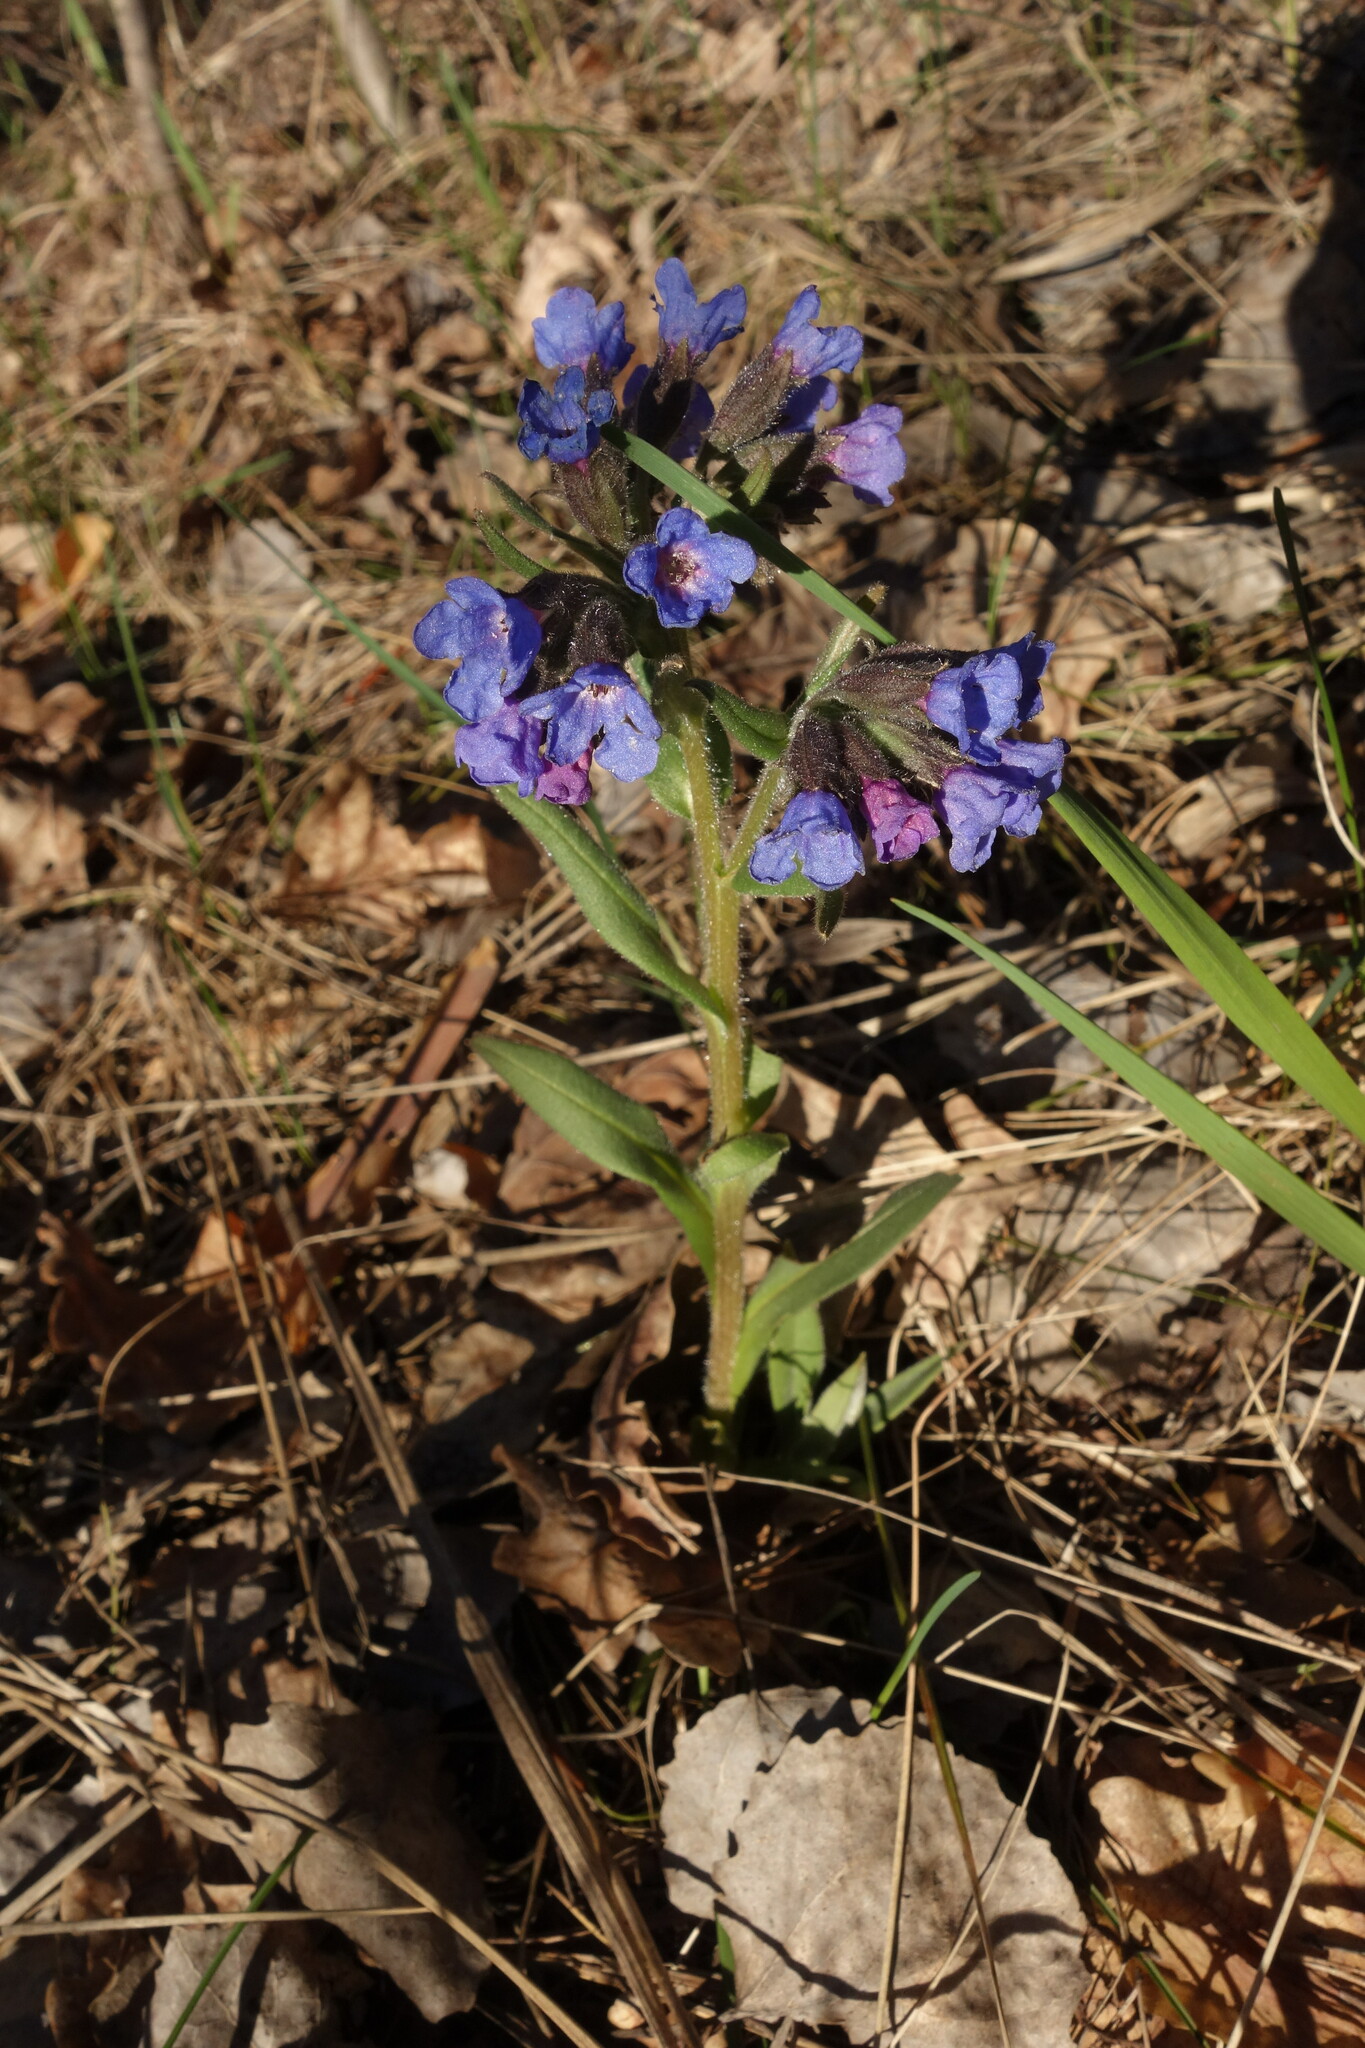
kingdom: Plantae
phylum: Tracheophyta
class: Magnoliopsida
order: Boraginales
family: Boraginaceae
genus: Pulmonaria
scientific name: Pulmonaria angustifolia
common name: Blue cowslip
